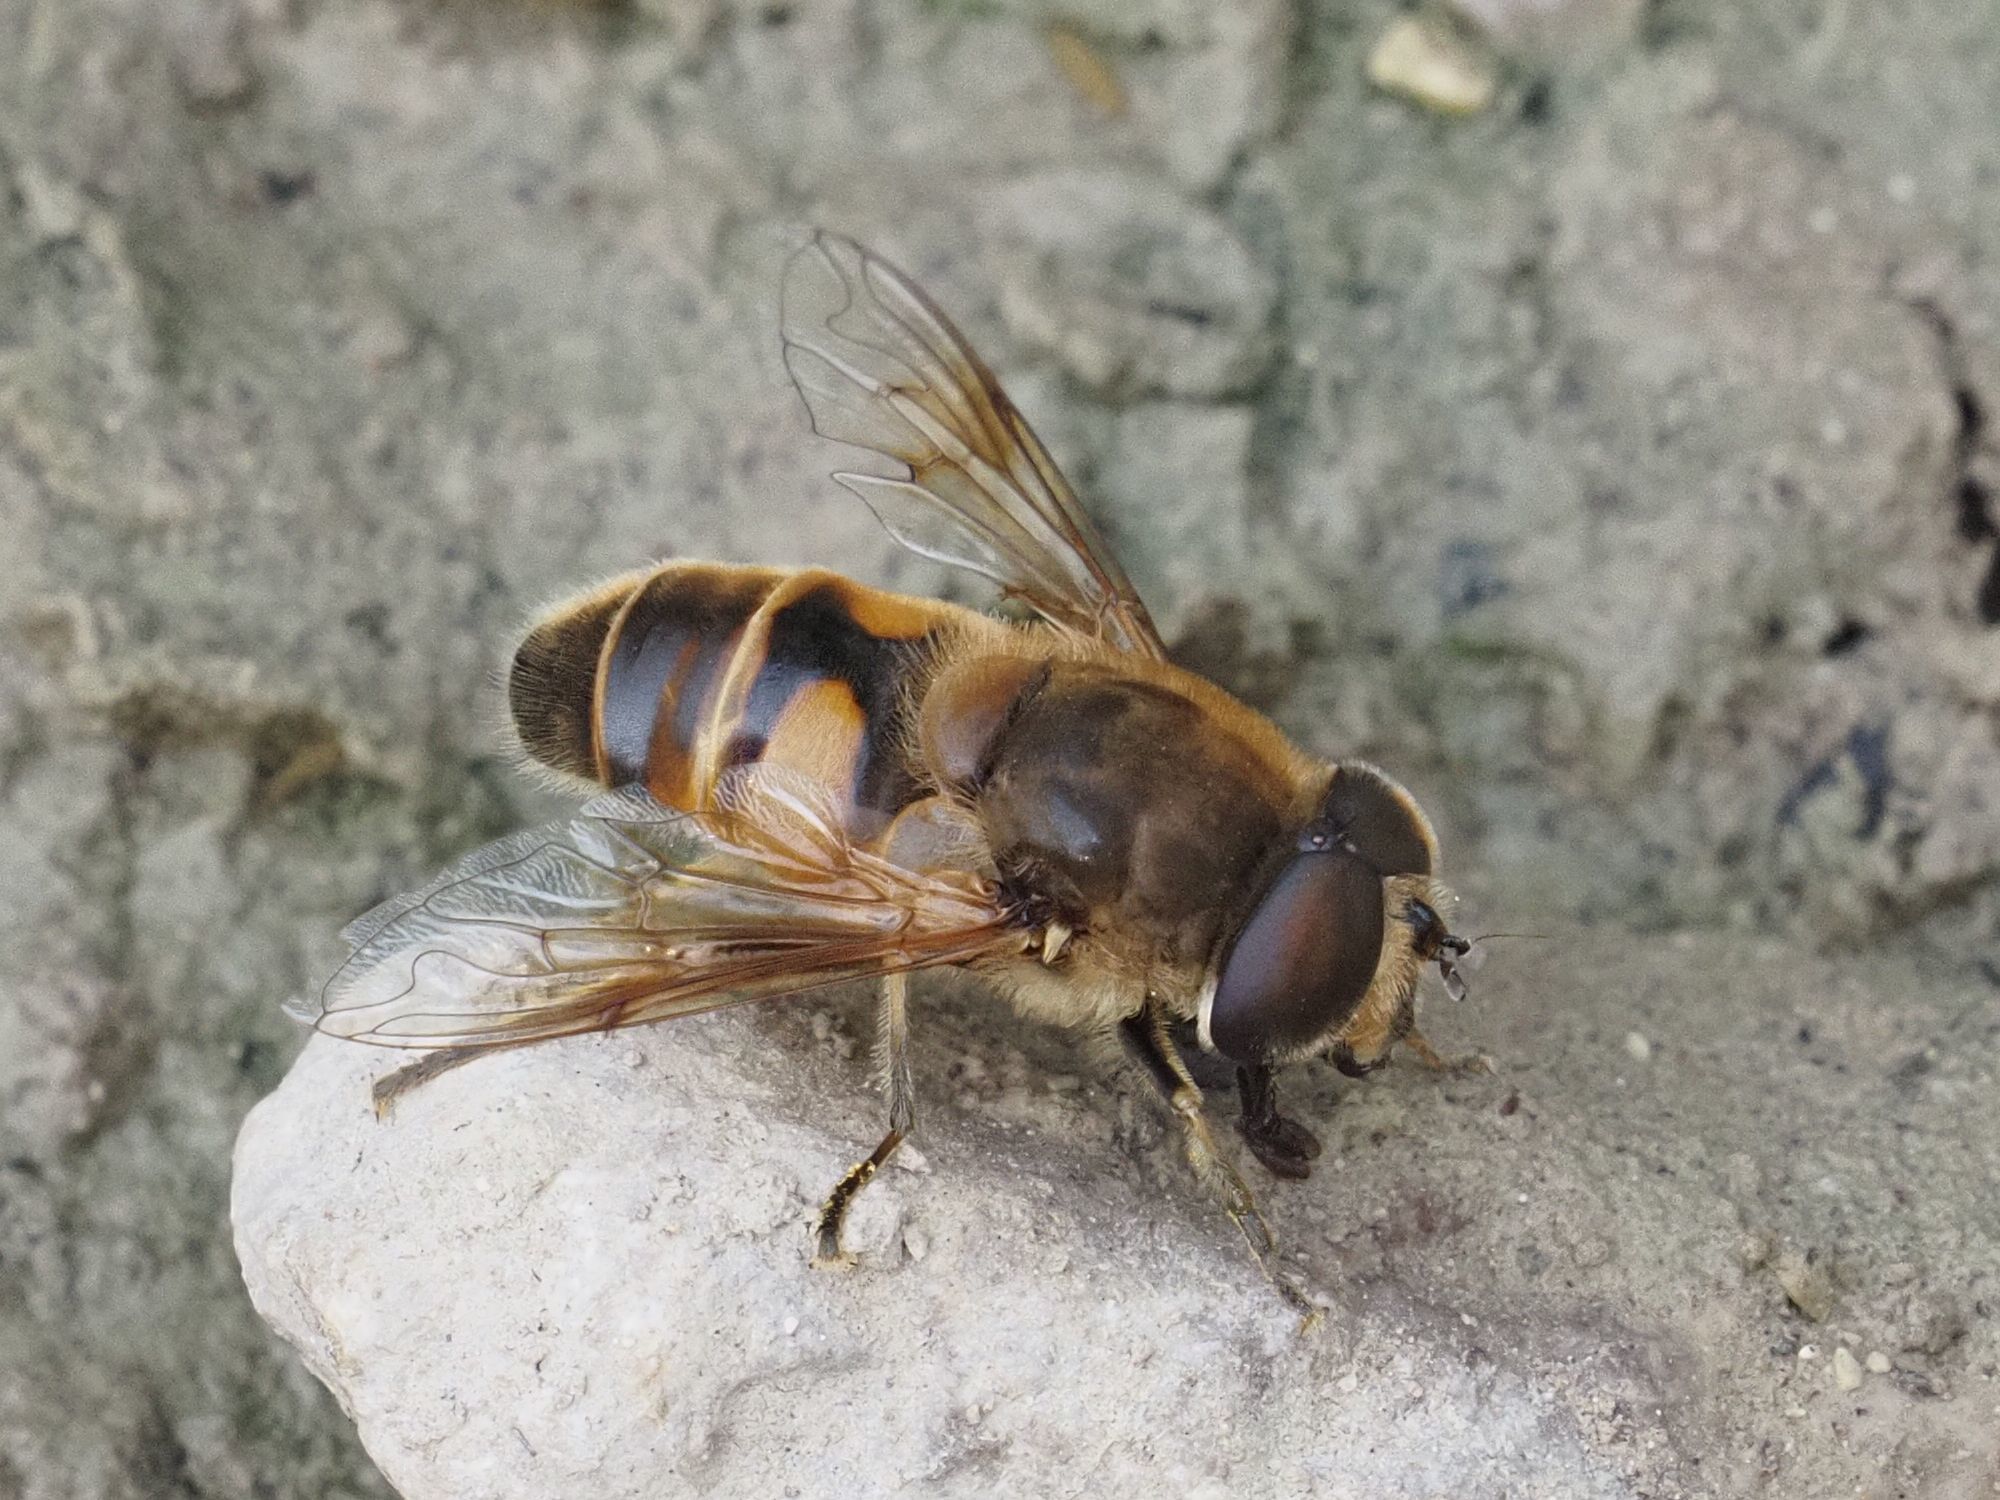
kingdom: Animalia
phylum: Arthropoda
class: Insecta
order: Diptera
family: Syrphidae
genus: Eristalis
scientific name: Eristalis tenax
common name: Drone fly
